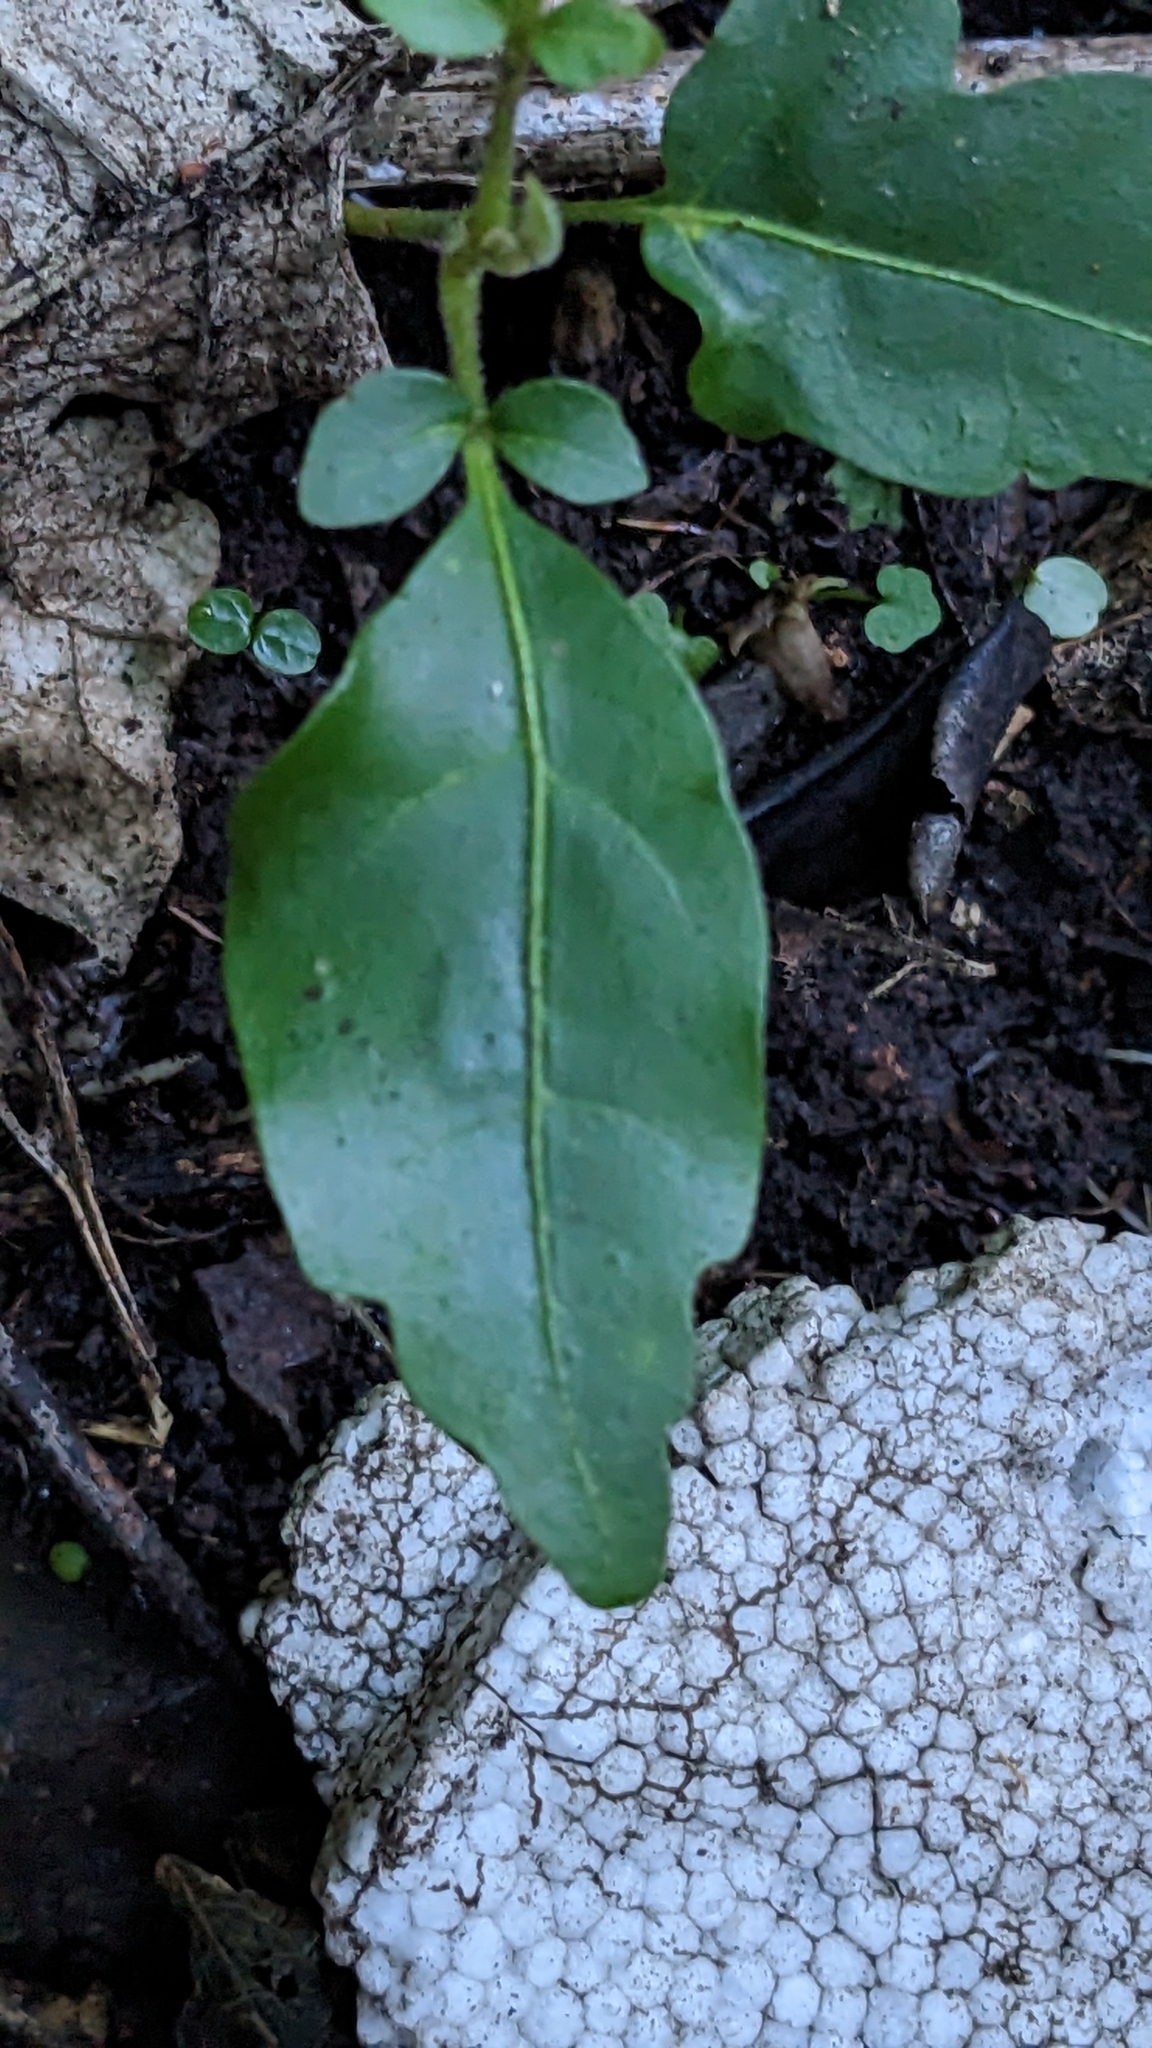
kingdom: Plantae
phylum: Tracheophyta
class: Magnoliopsida
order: Sapindales
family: Meliaceae
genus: Didymocheton
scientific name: Didymocheton spectabilis
